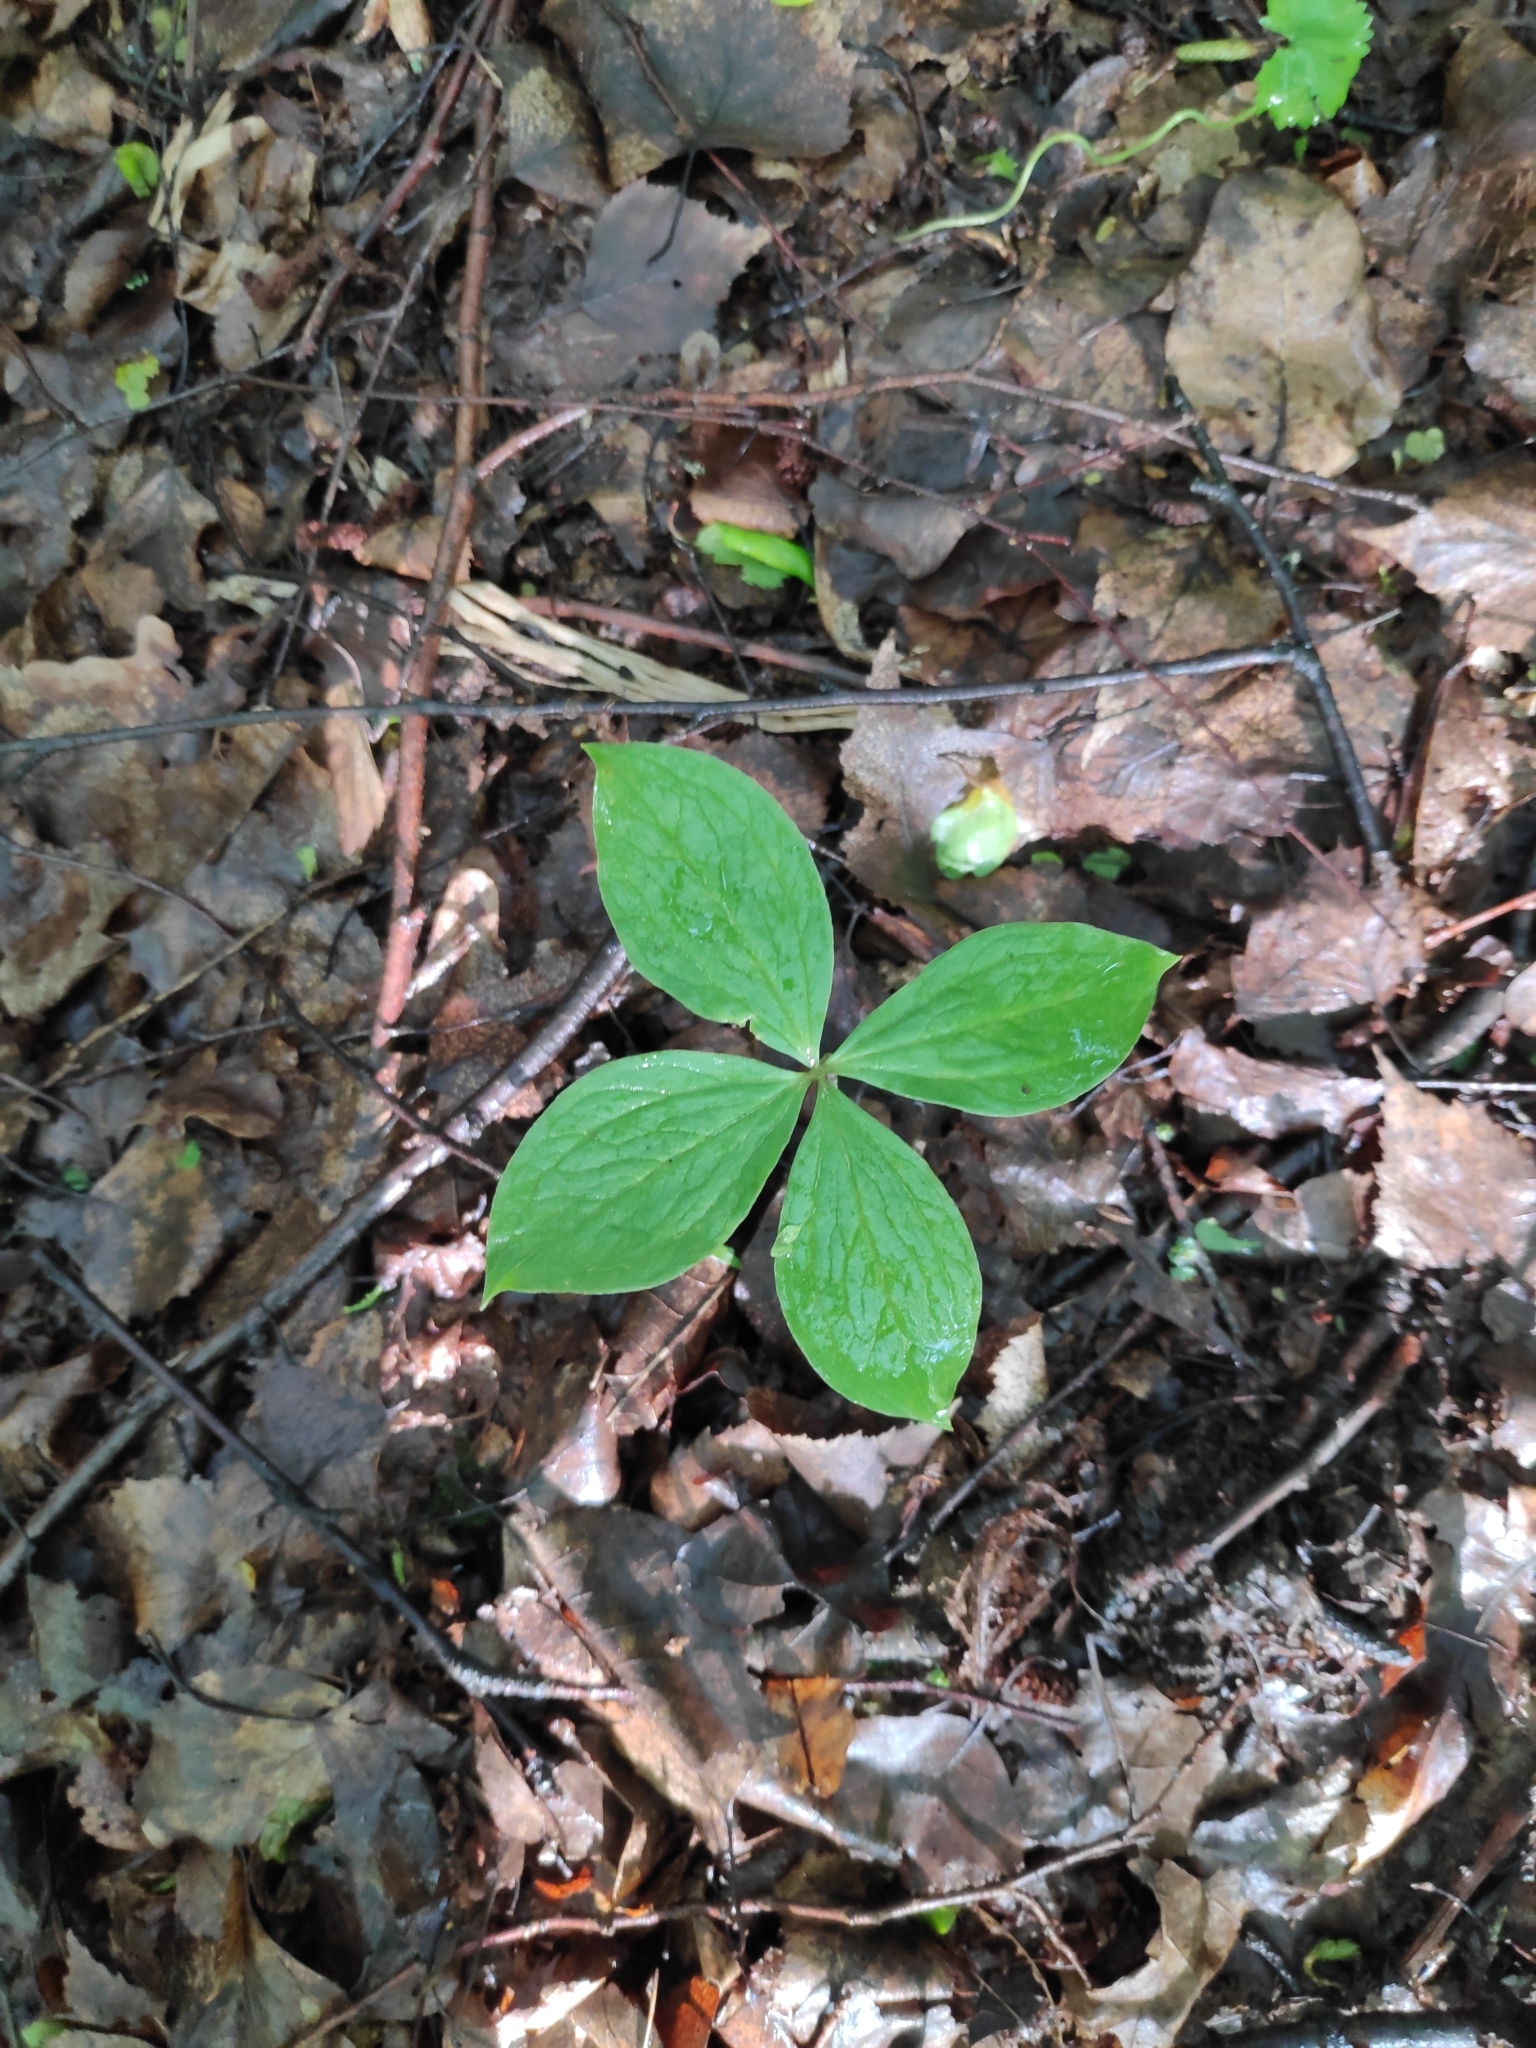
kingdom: Plantae
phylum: Tracheophyta
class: Liliopsida
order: Liliales
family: Melanthiaceae
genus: Paris
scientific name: Paris quadrifolia
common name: Herb-paris
